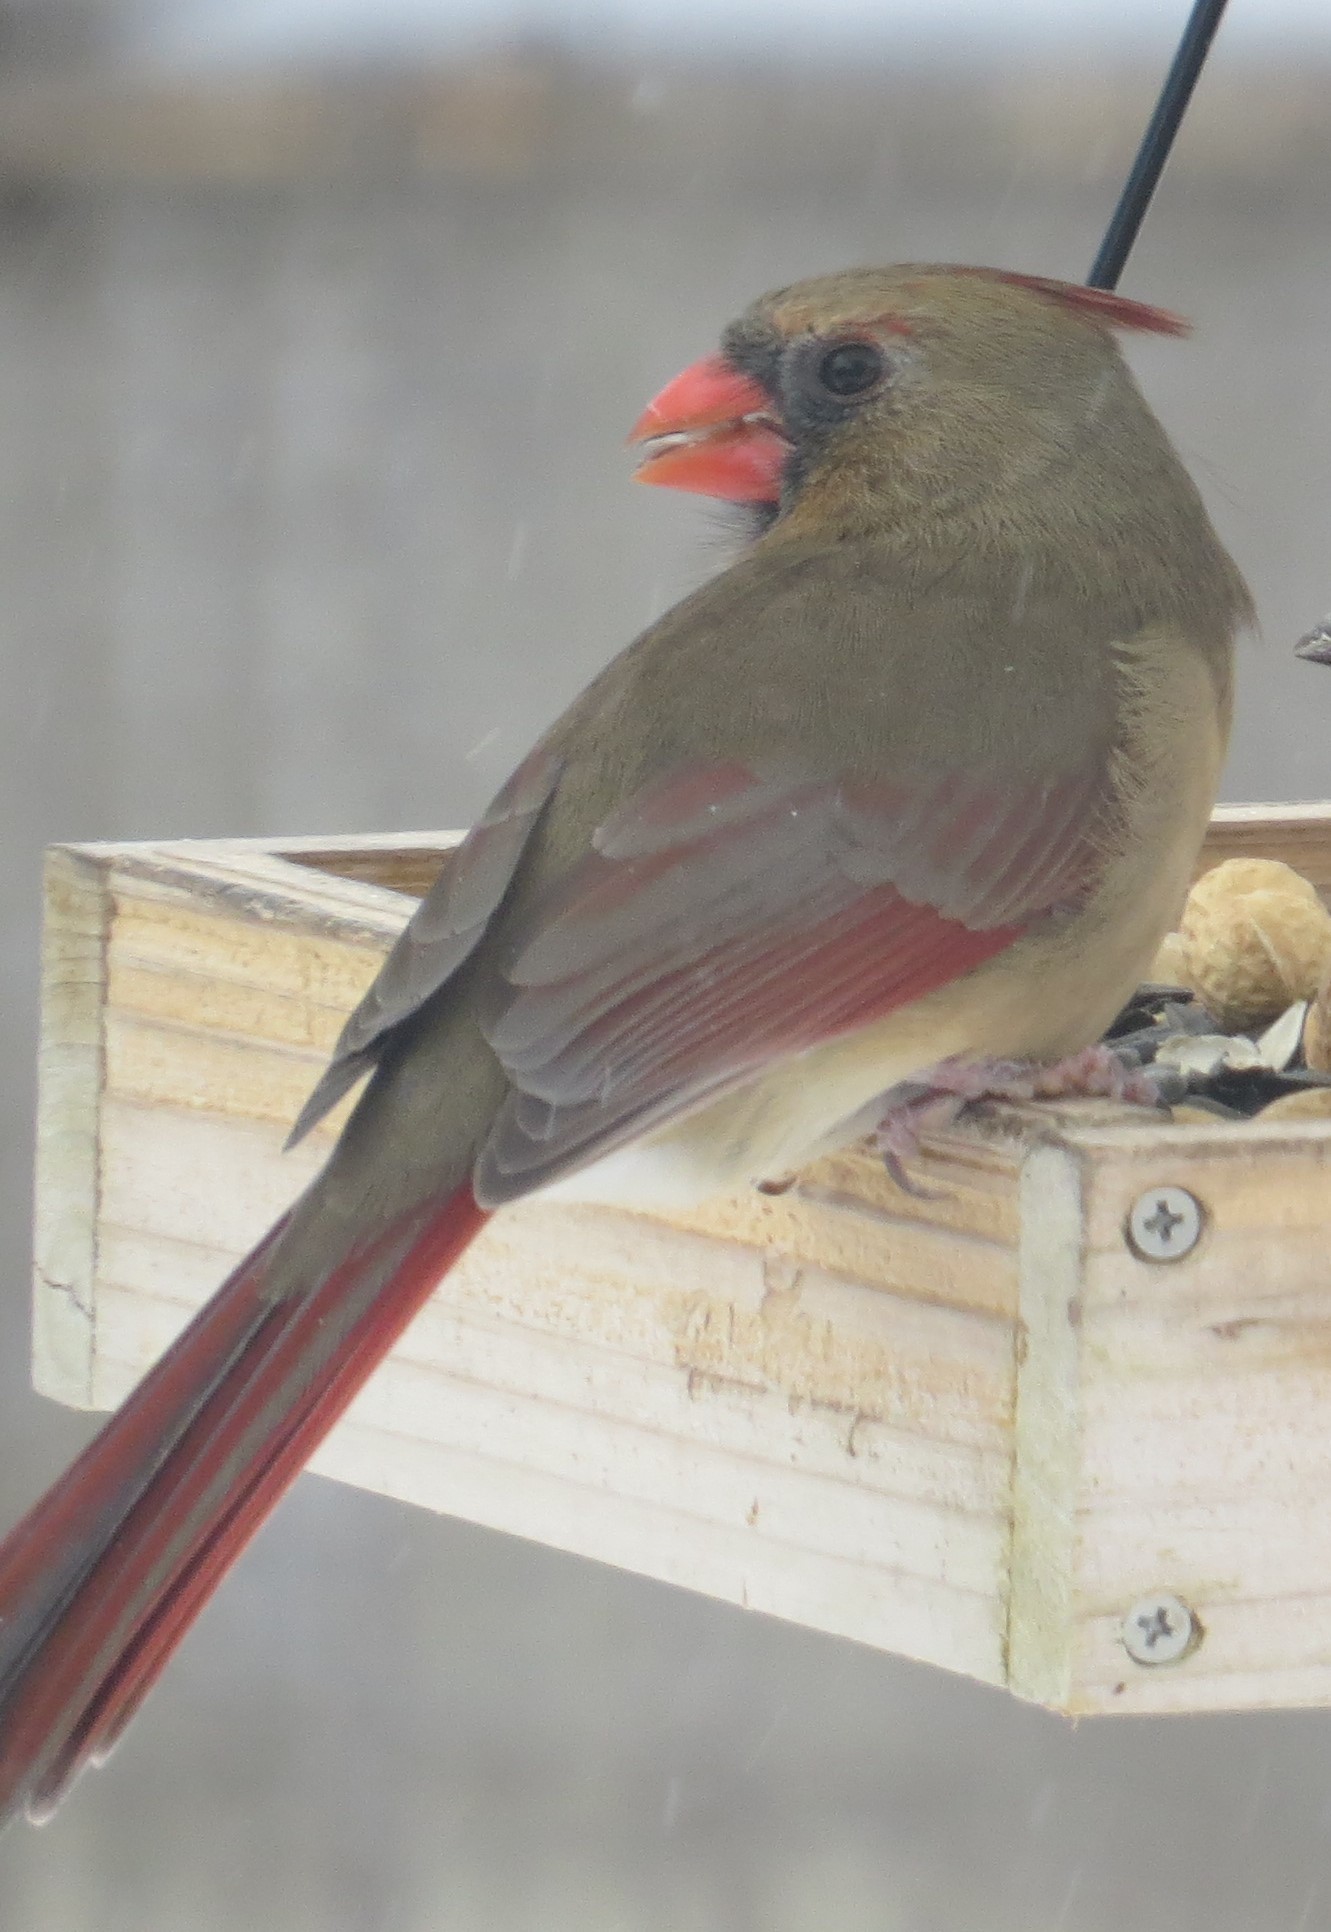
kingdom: Animalia
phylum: Chordata
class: Aves
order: Passeriformes
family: Cardinalidae
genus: Cardinalis
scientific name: Cardinalis cardinalis
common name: Northern cardinal
